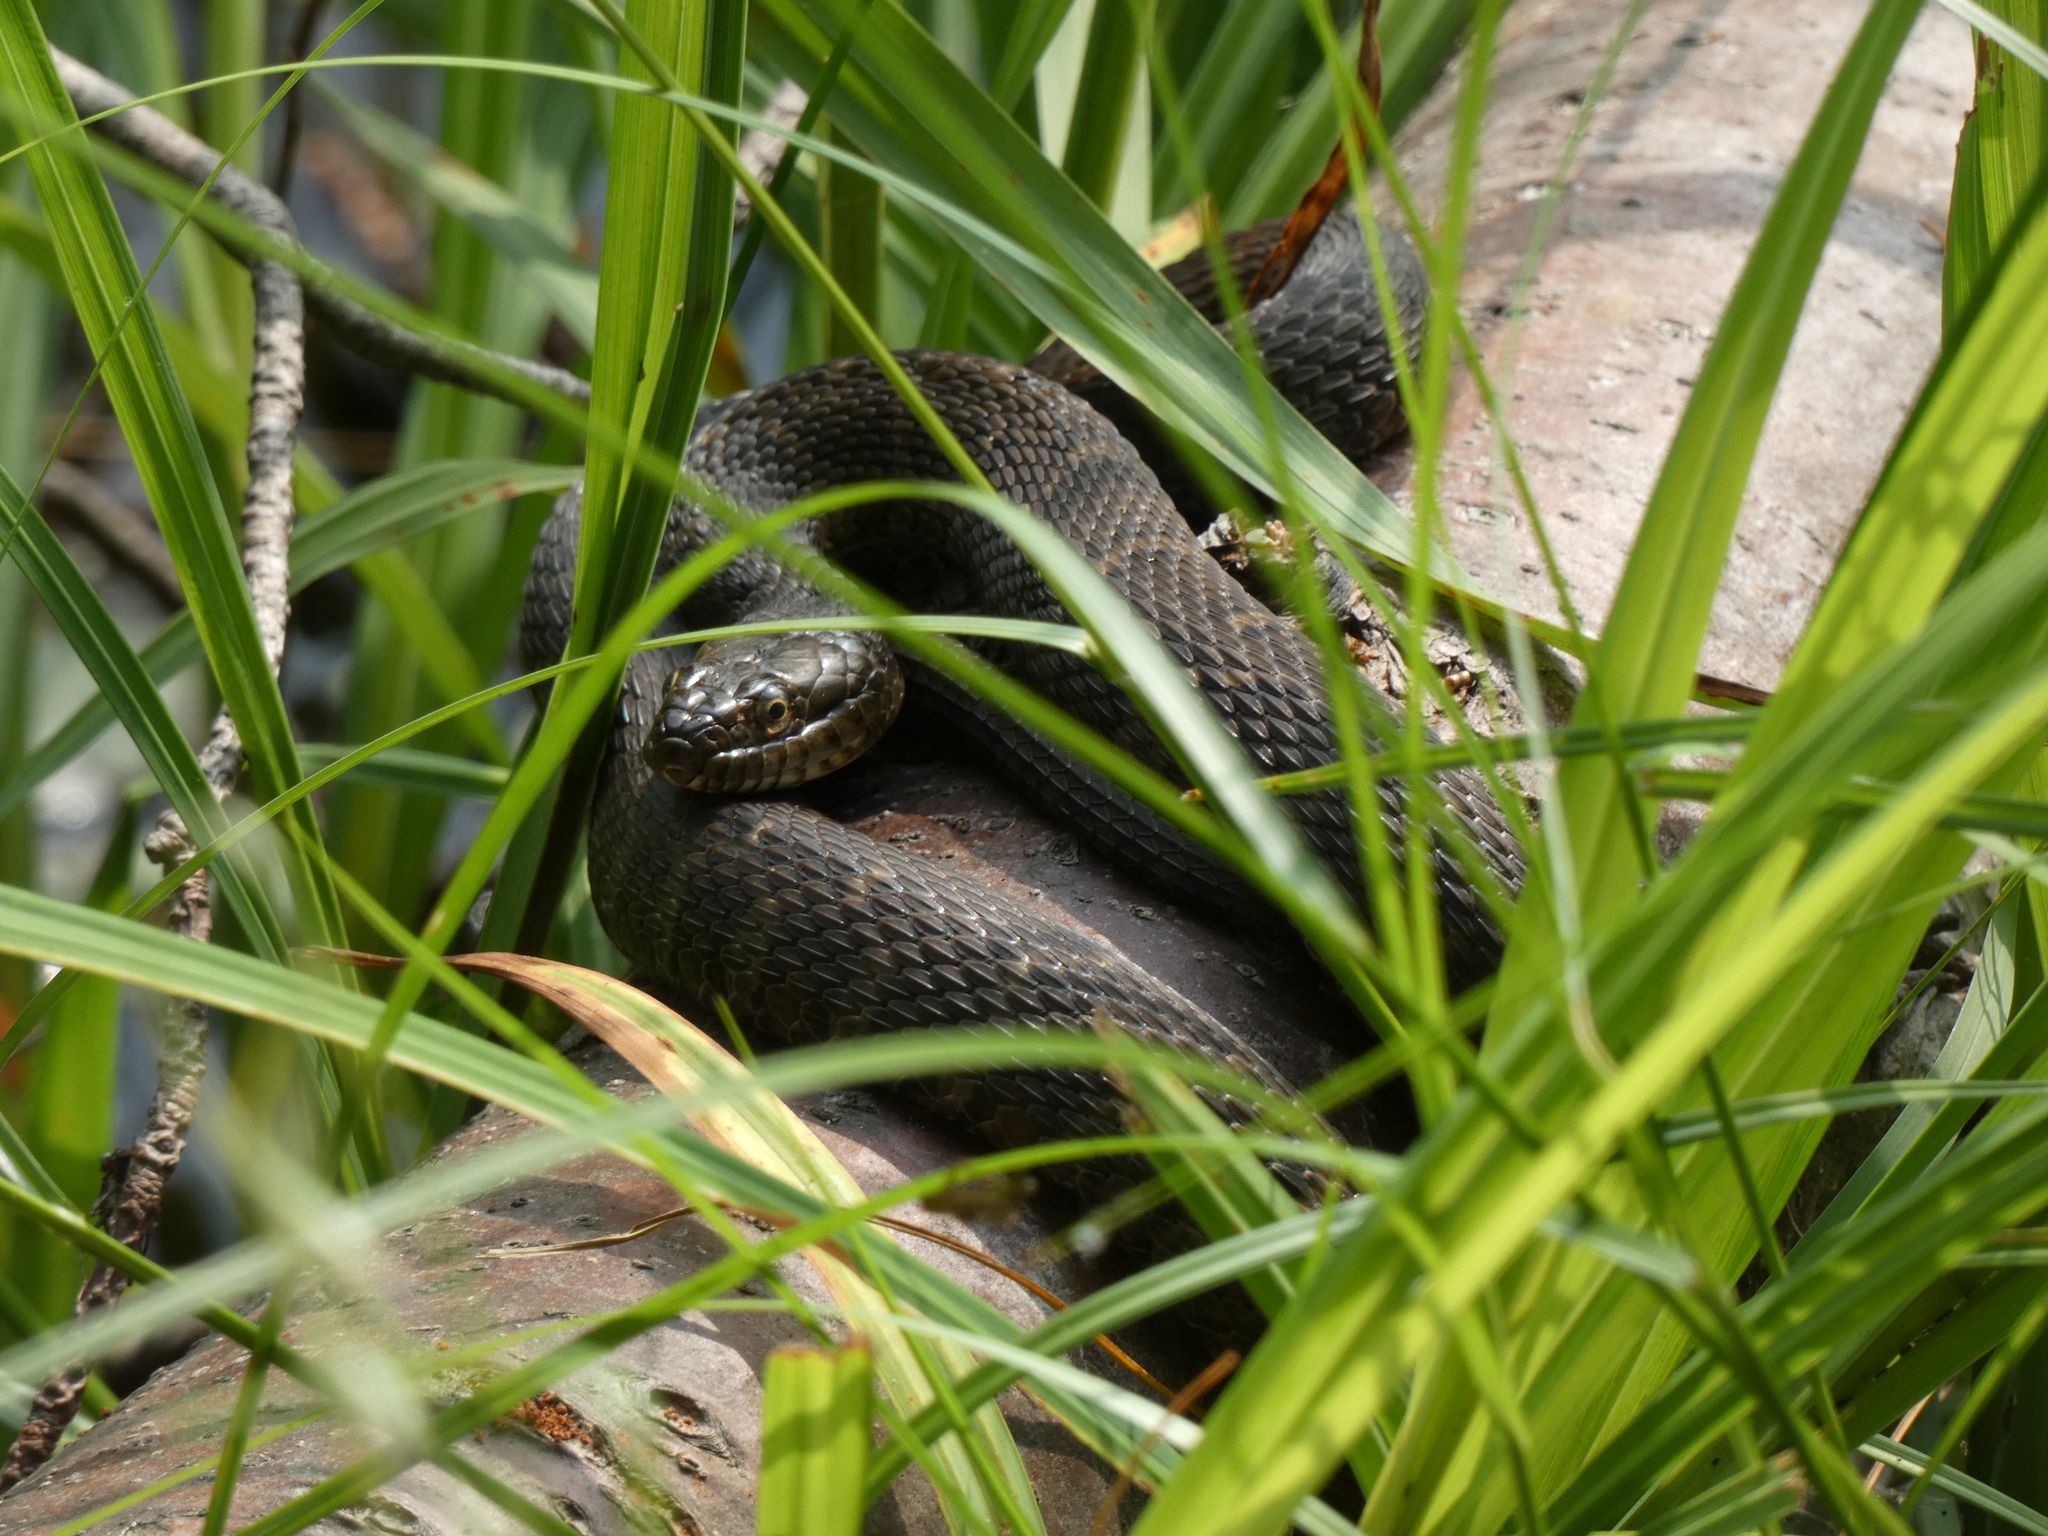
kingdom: Animalia
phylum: Chordata
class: Squamata
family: Colubridae
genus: Nerodia
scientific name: Nerodia sipedon
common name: Northern water snake
